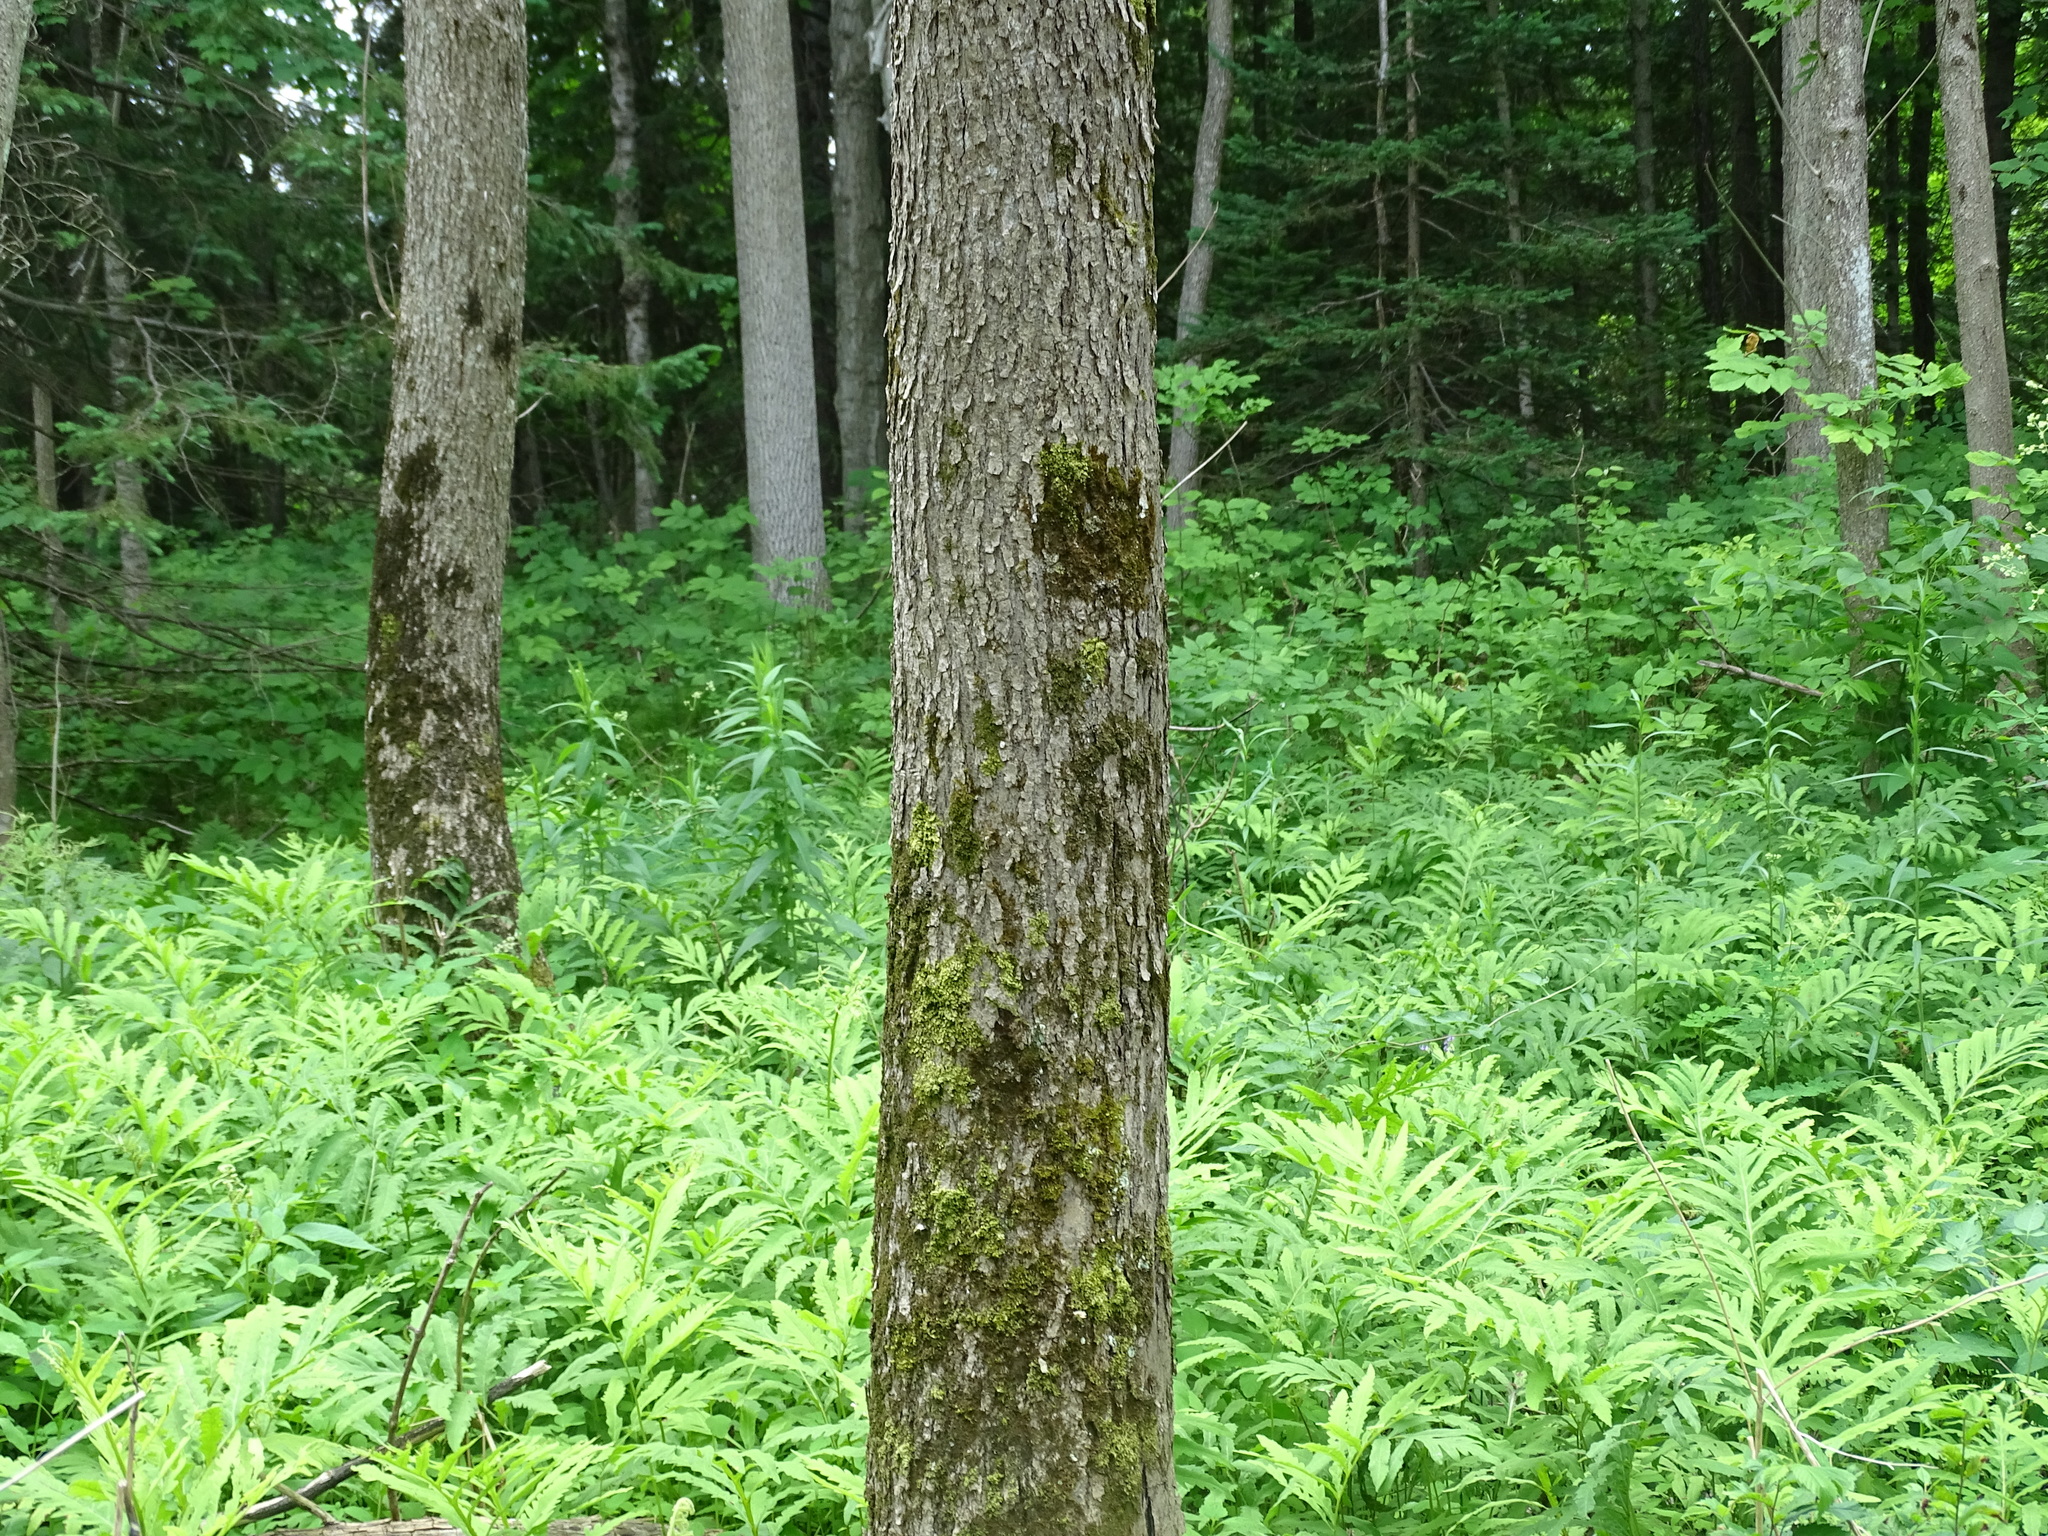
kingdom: Plantae
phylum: Tracheophyta
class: Magnoliopsida
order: Lamiales
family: Oleaceae
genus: Fraxinus
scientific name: Fraxinus nigra
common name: Black ash
